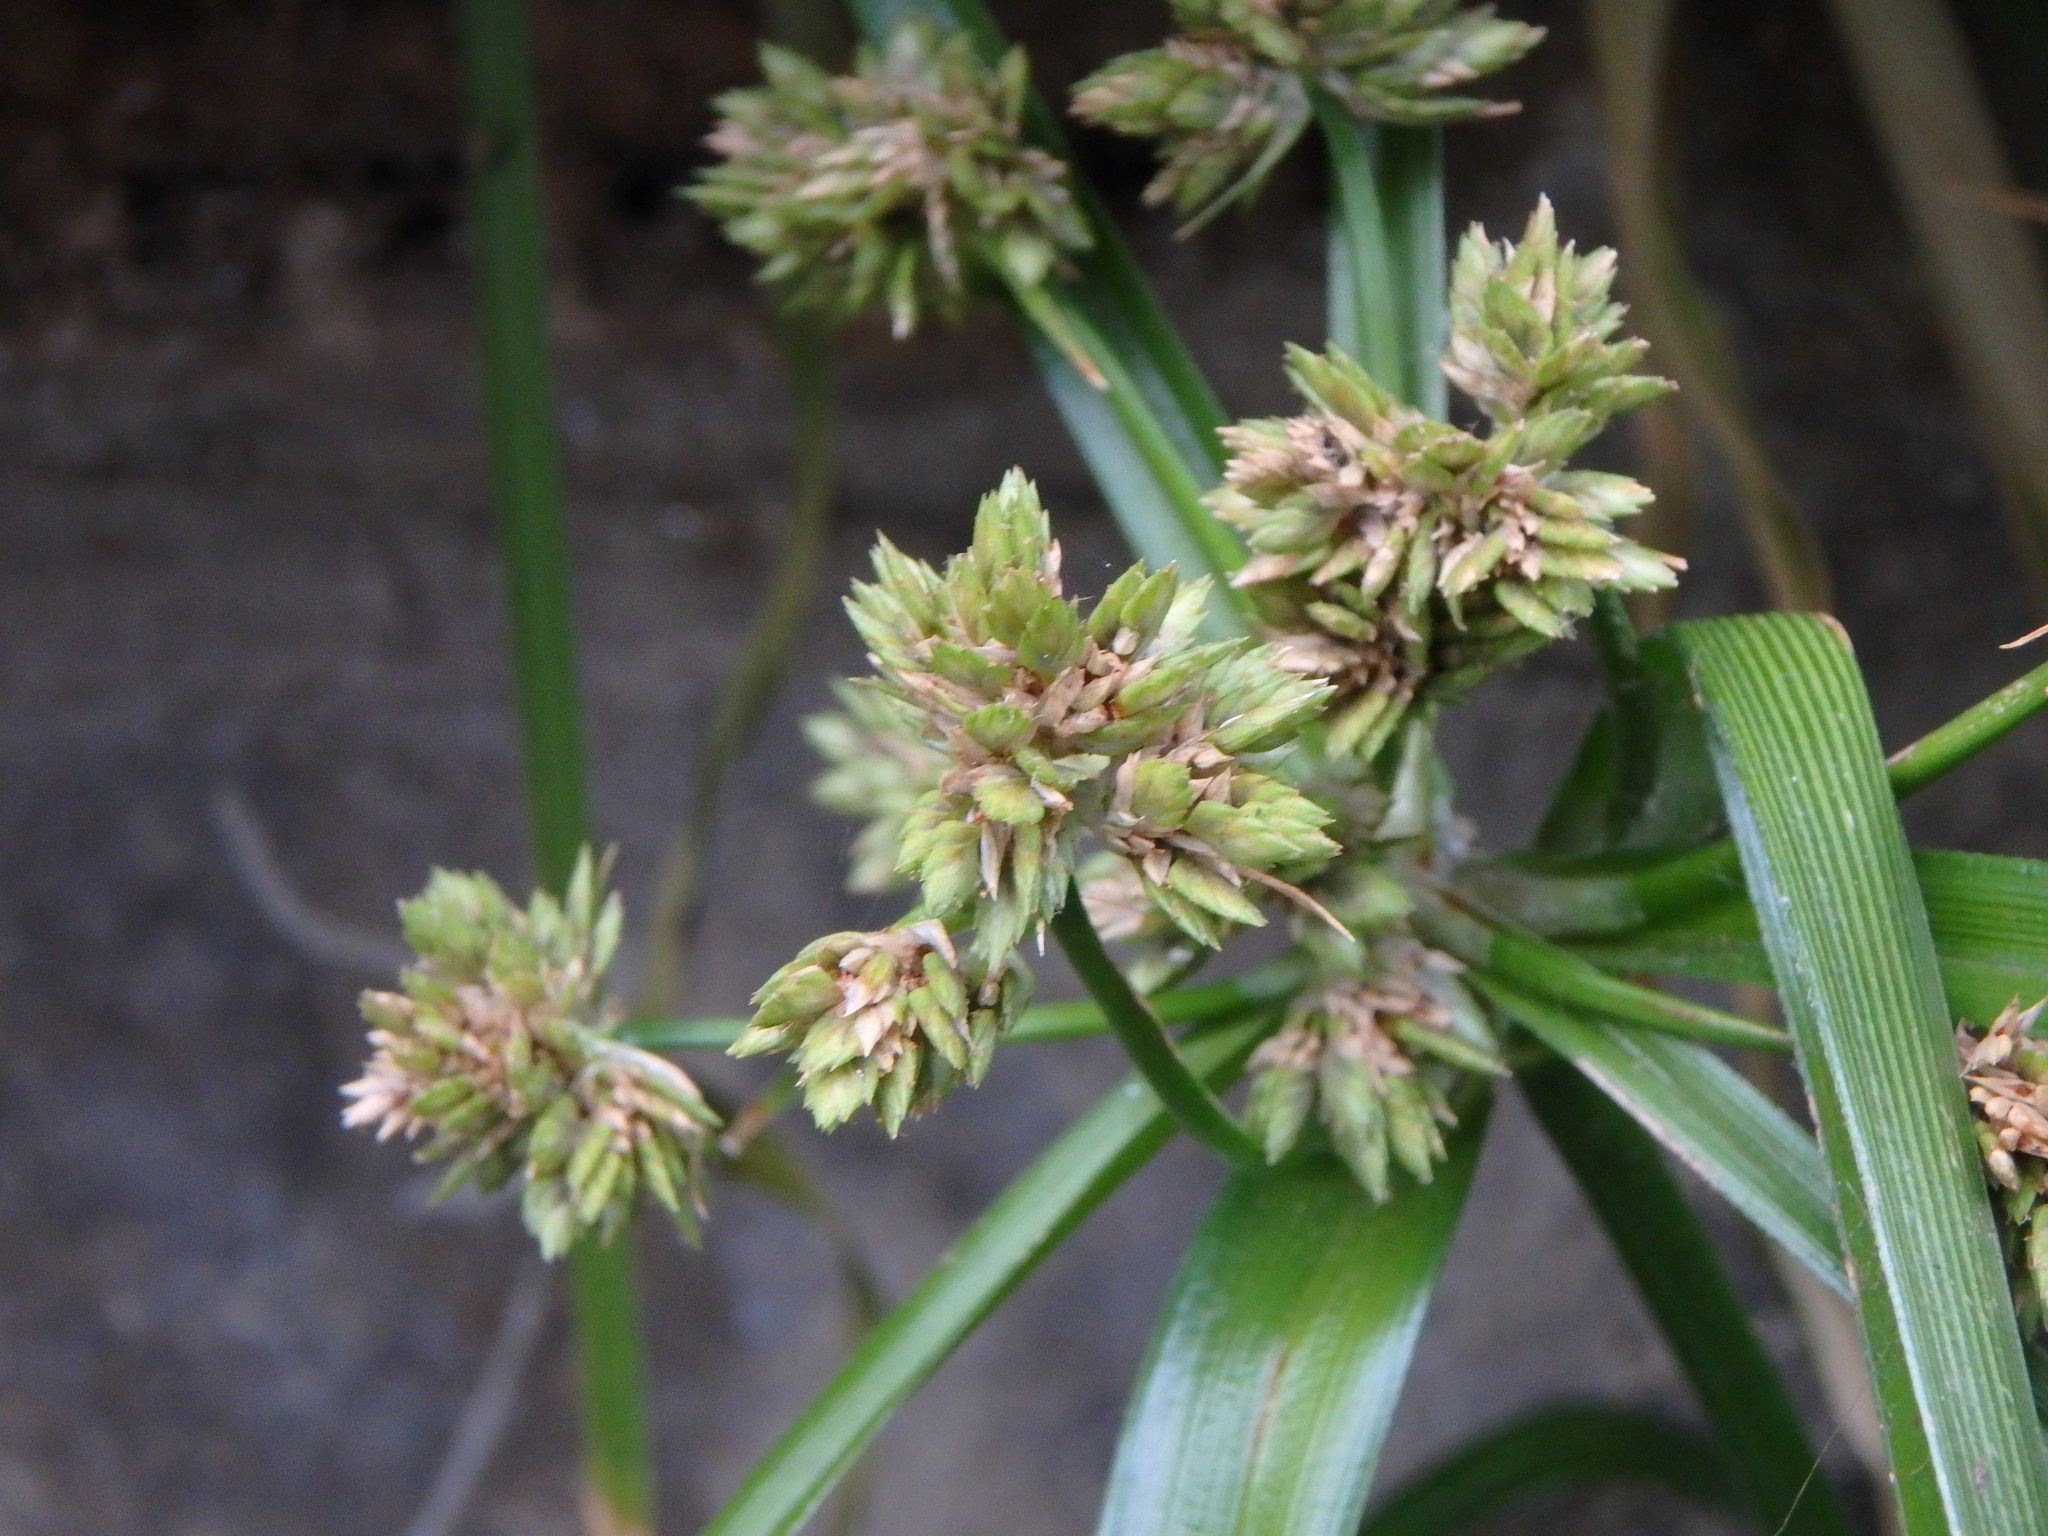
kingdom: Plantae
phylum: Tracheophyta
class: Liliopsida
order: Poales
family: Cyperaceae
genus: Cyperus
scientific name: Cyperus eragrostis
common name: Tall flatsedge
